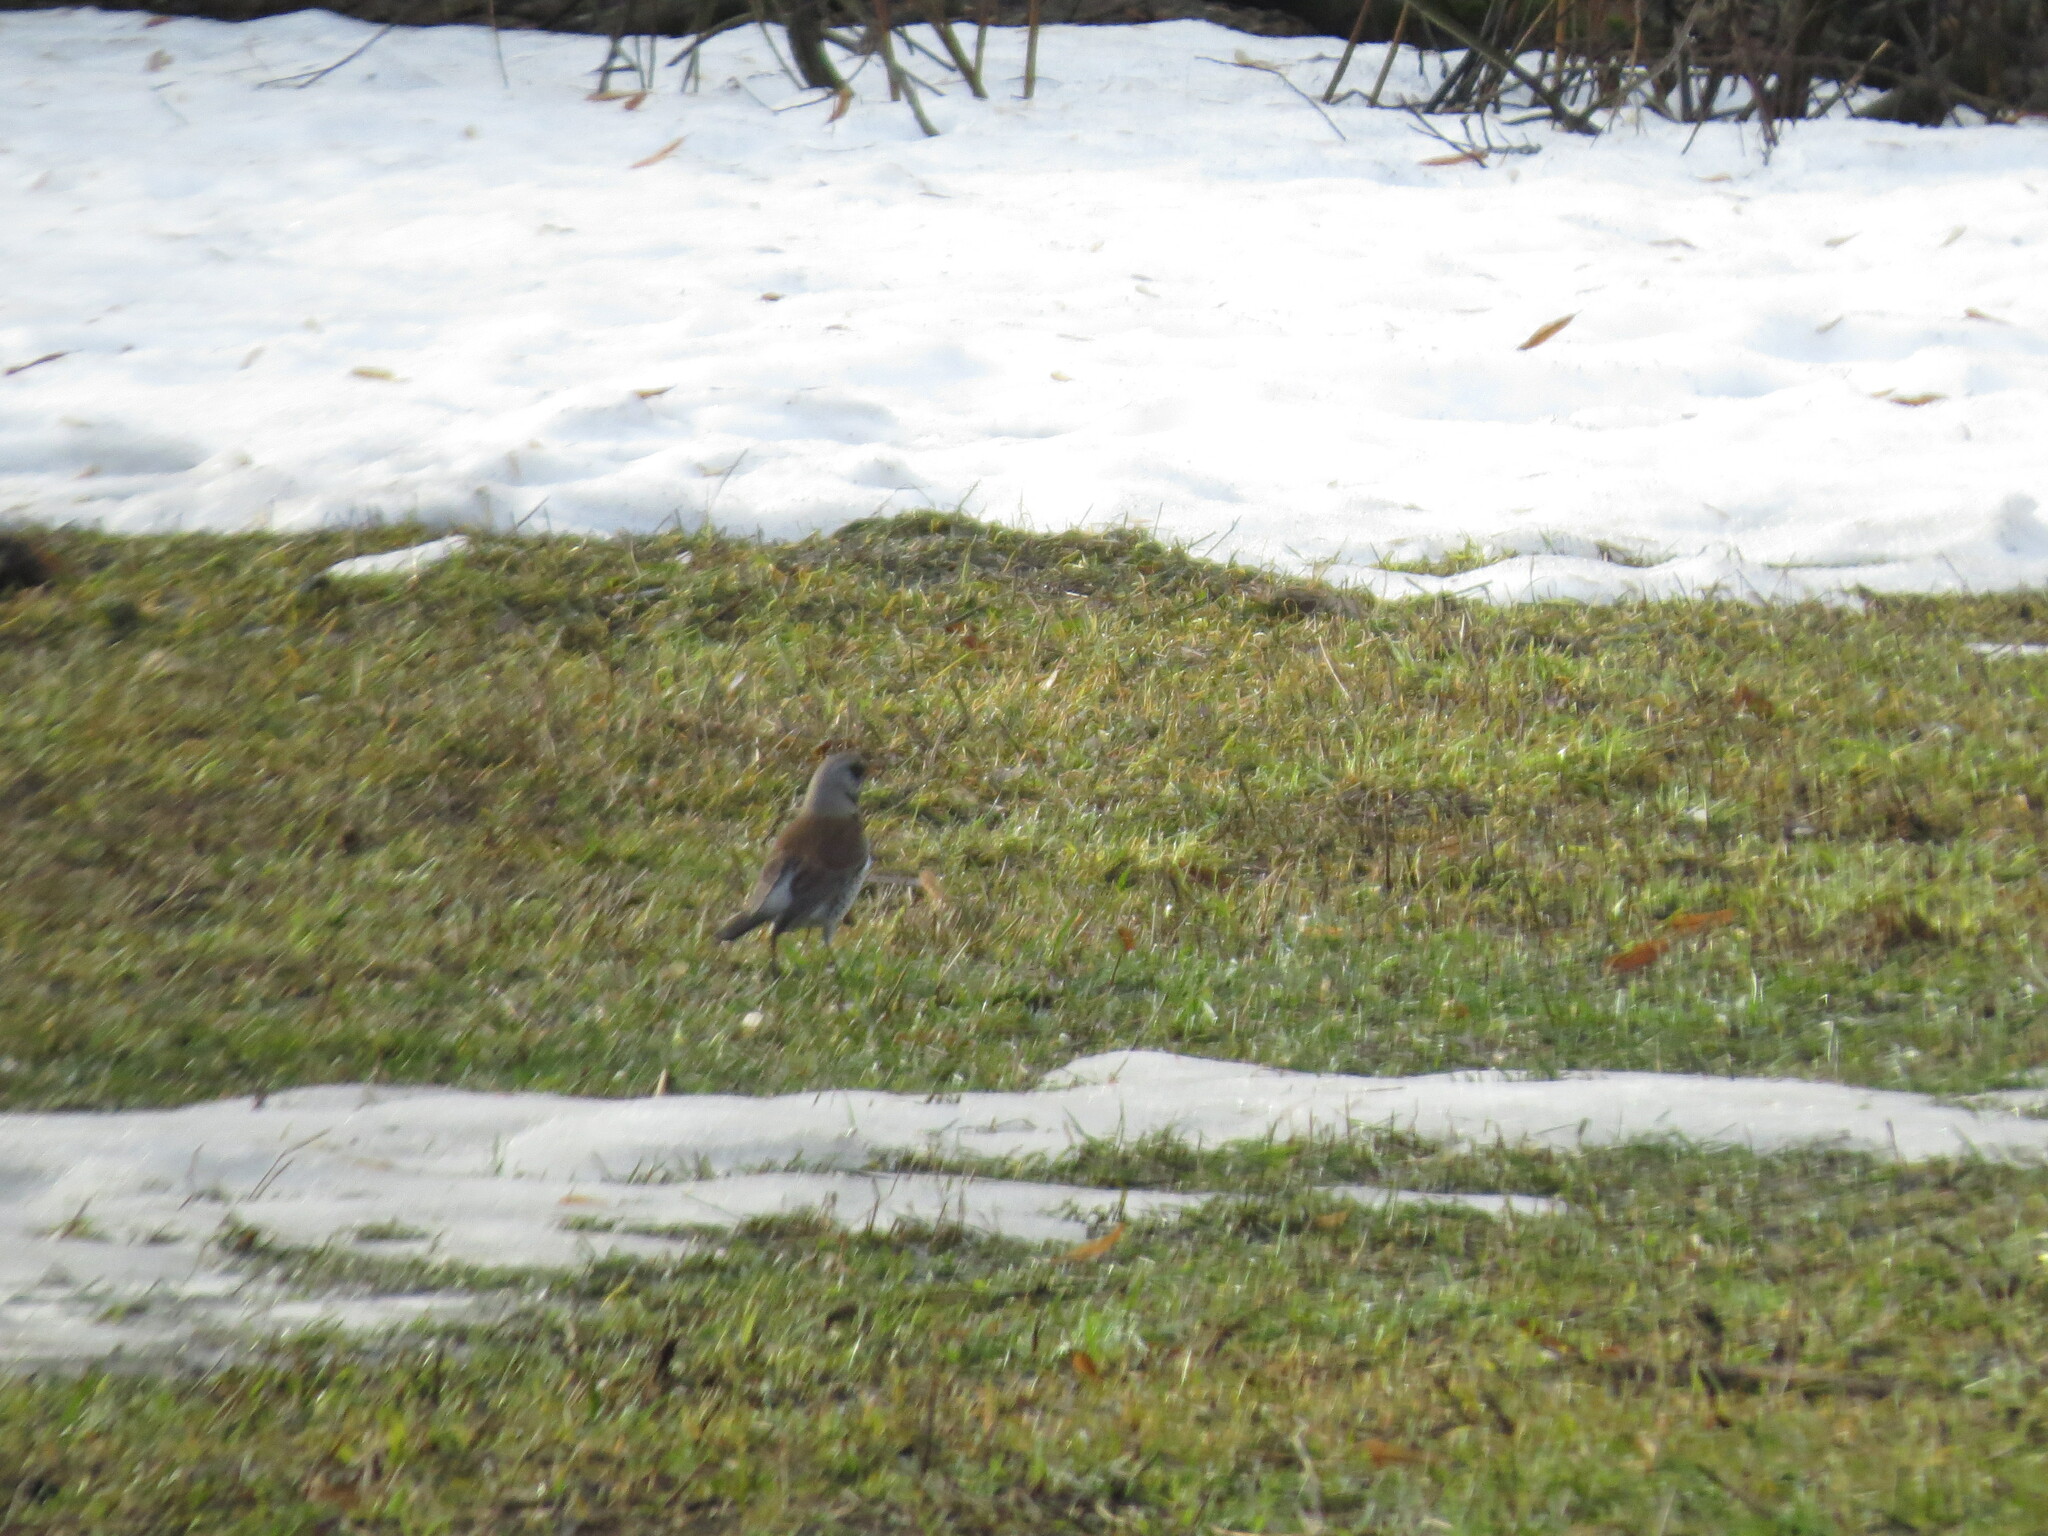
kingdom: Animalia
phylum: Chordata
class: Aves
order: Passeriformes
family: Turdidae
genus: Turdus
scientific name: Turdus pilaris
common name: Fieldfare
